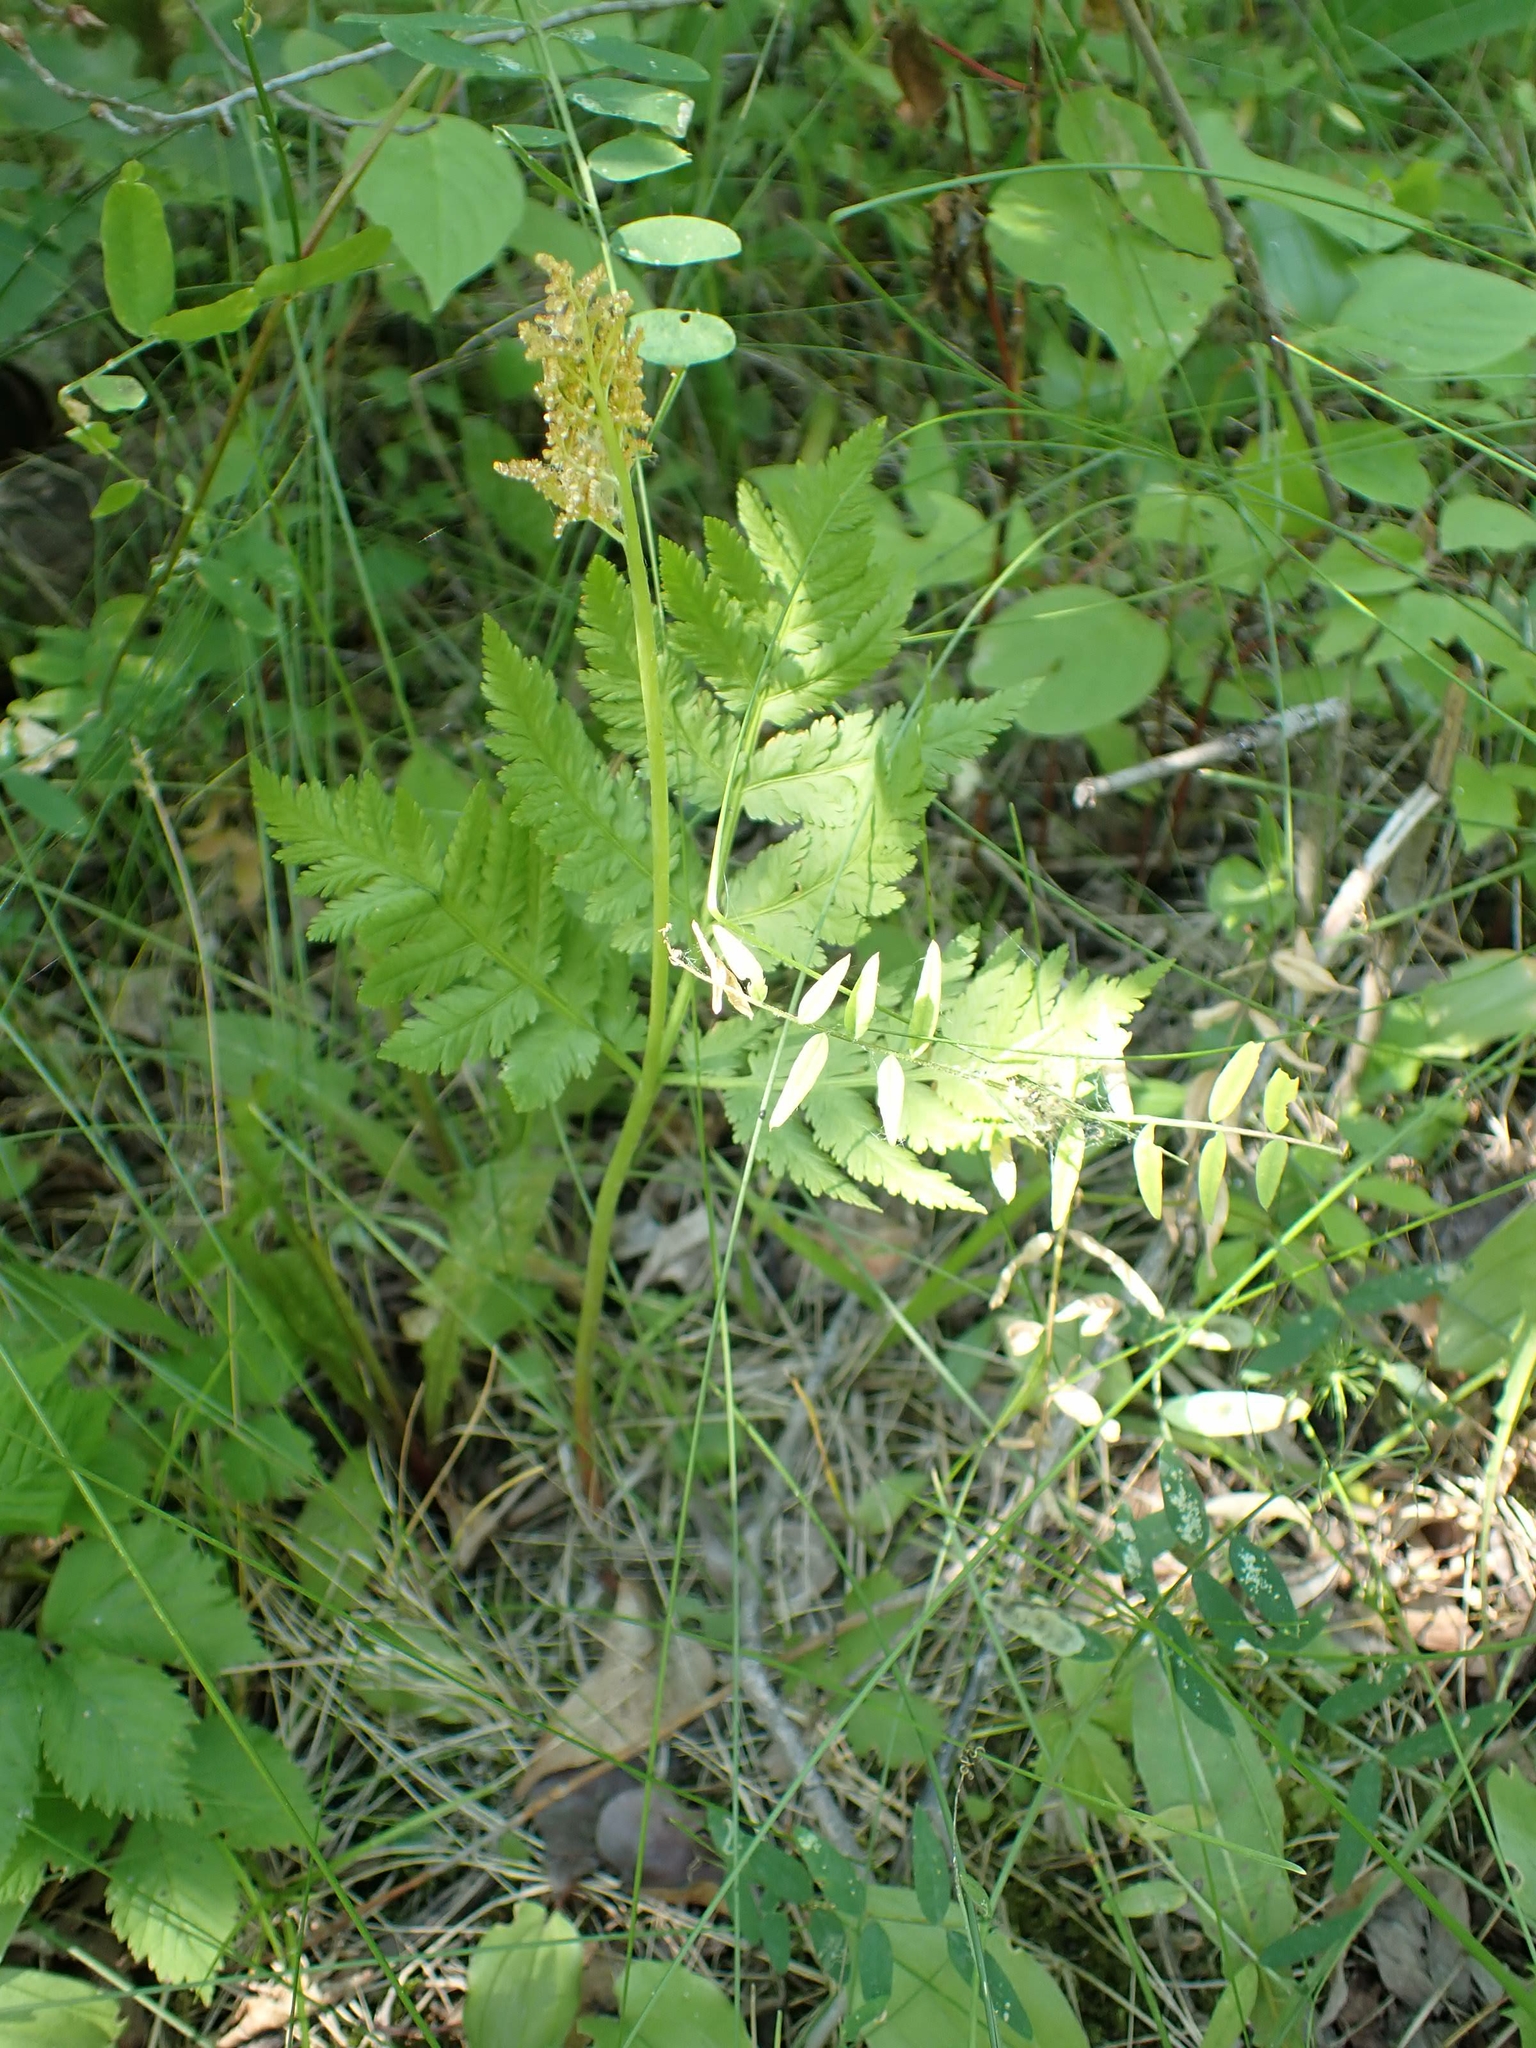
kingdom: Plantae
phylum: Tracheophyta
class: Polypodiopsida
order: Ophioglossales
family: Ophioglossaceae
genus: Botrypus
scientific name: Botrypus virginianus
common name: Common grapefern
